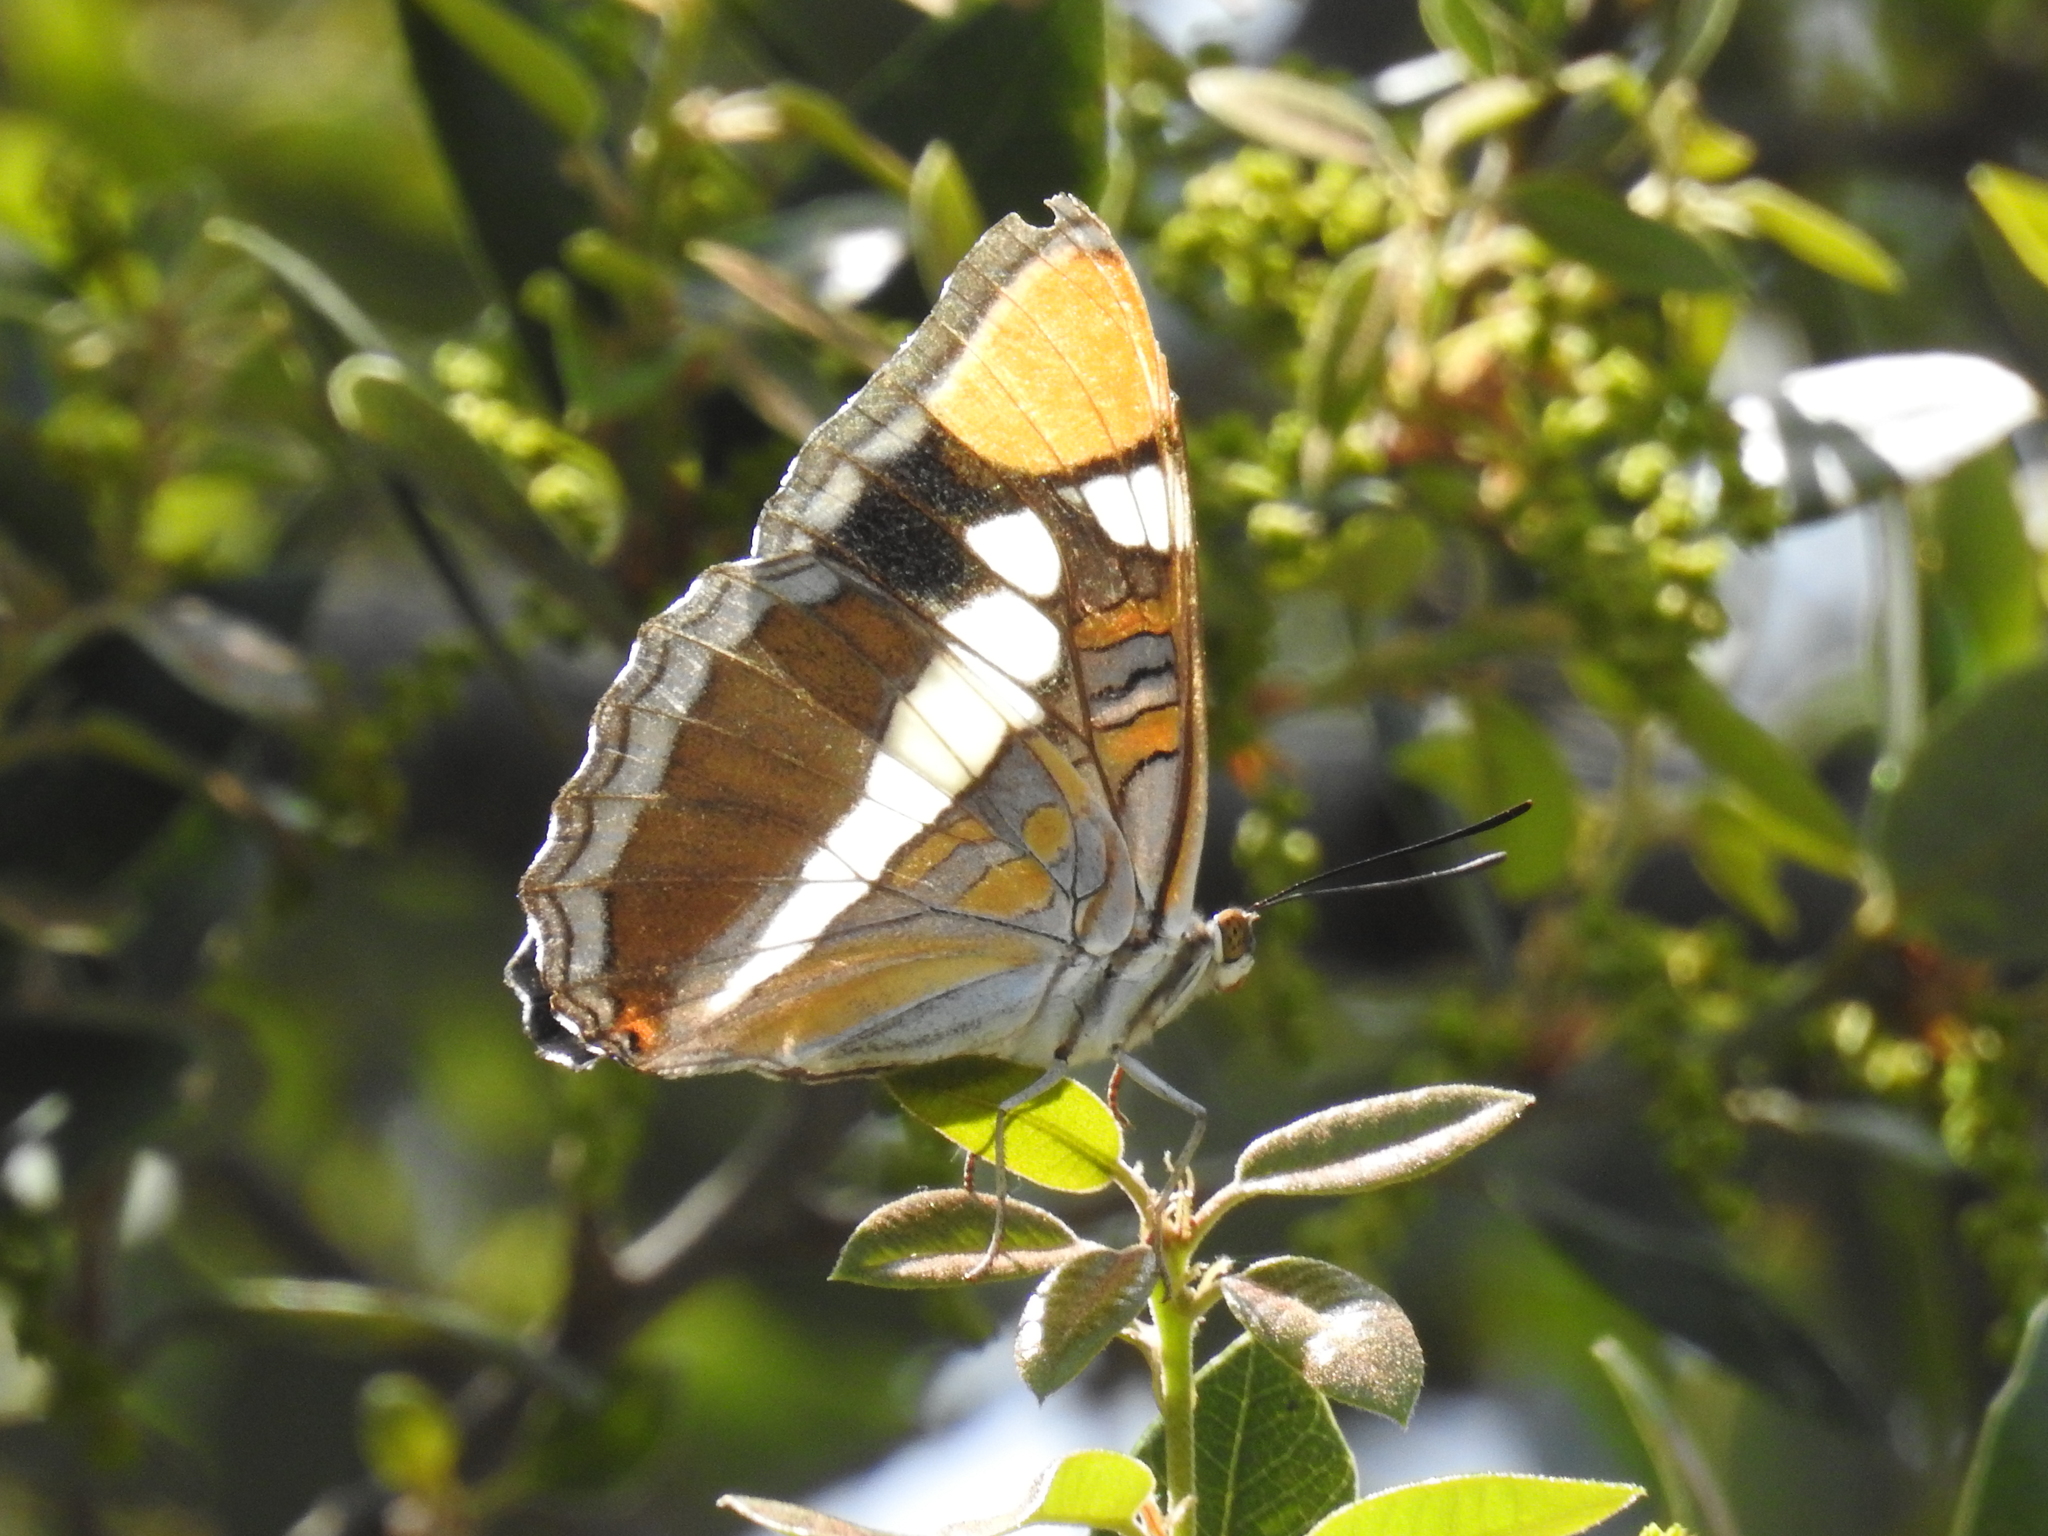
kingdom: Animalia
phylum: Arthropoda
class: Insecta
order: Lepidoptera
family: Nymphalidae
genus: Limenitis
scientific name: Limenitis bredowii
